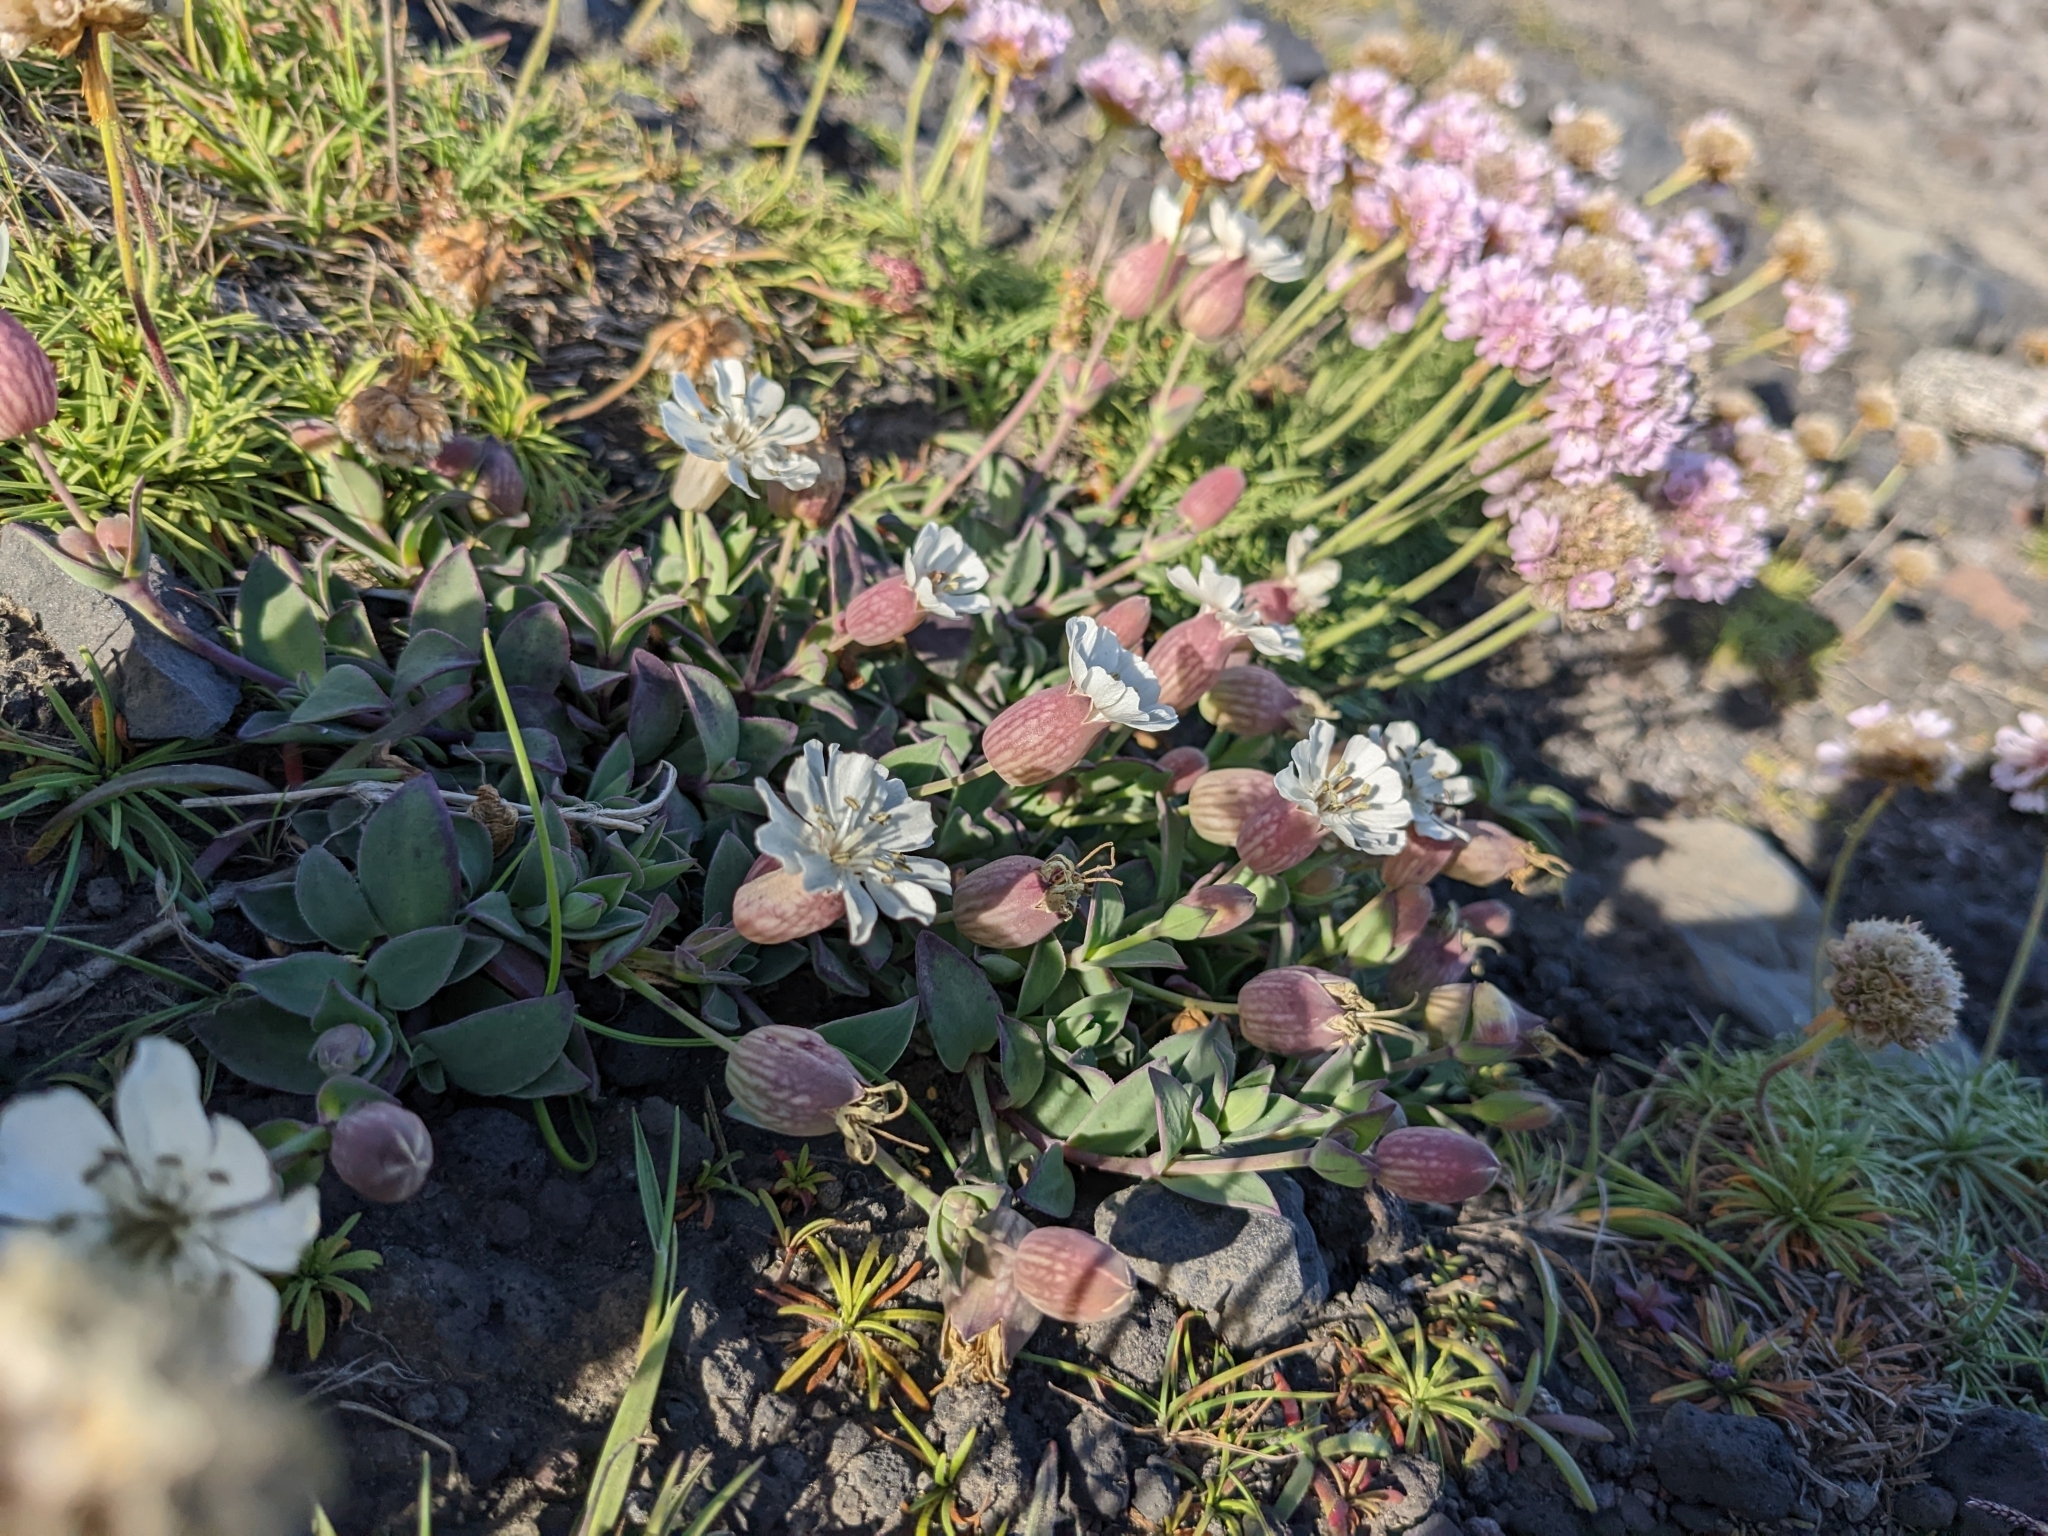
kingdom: Plantae
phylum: Tracheophyta
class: Magnoliopsida
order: Caryophyllales
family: Caryophyllaceae
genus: Silene
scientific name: Silene uniflora
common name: Sea campion
